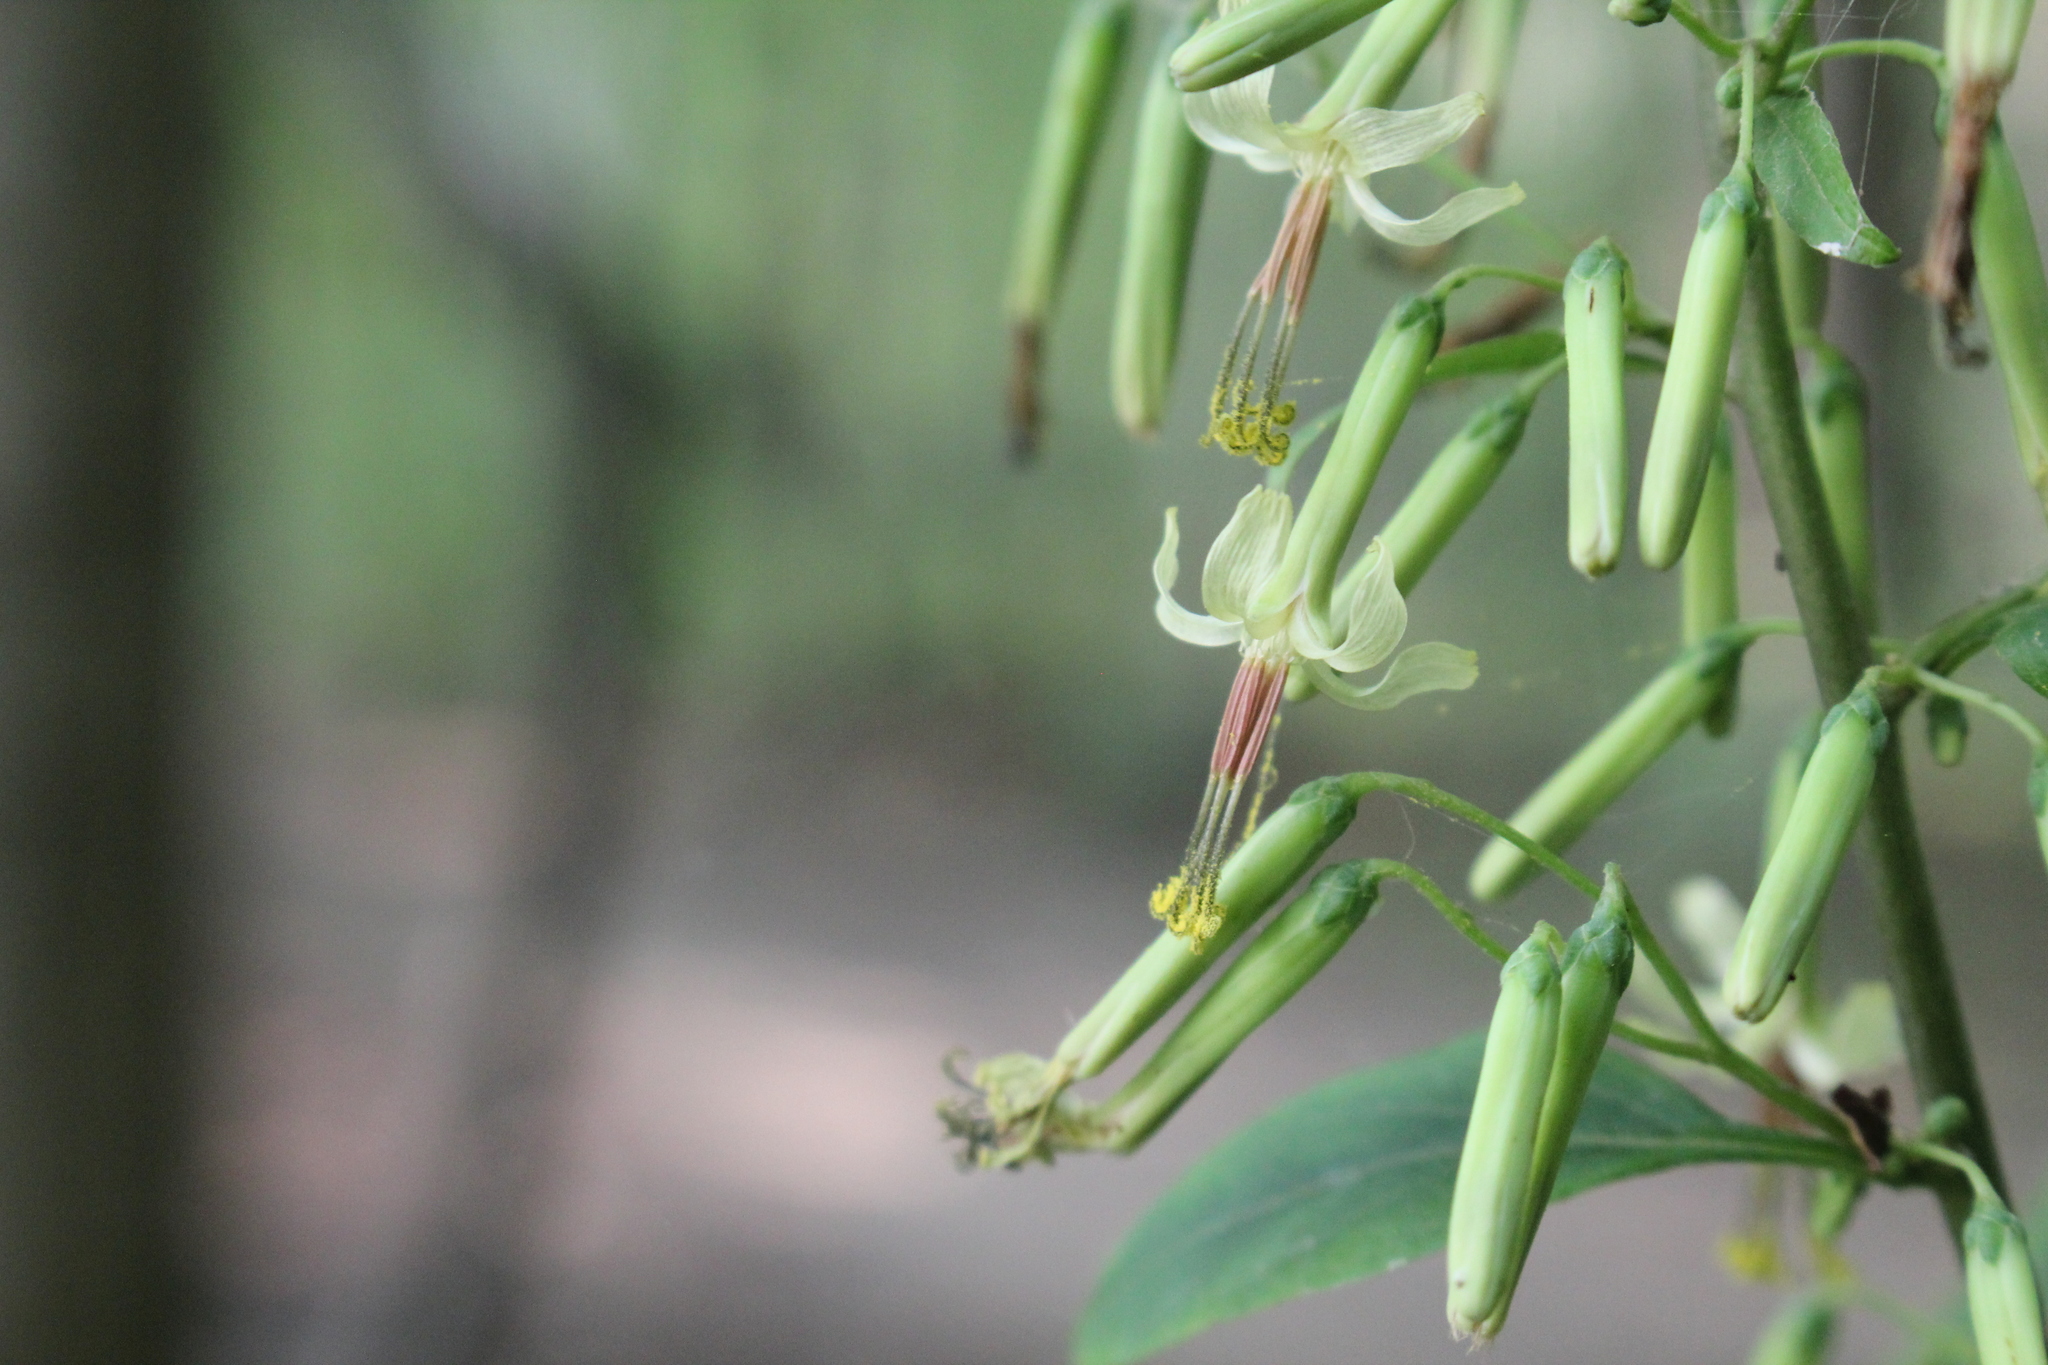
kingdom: Plantae
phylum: Tracheophyta
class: Magnoliopsida
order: Asterales
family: Asteraceae
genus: Nabalus
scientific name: Nabalus altissima
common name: Tall rattlesnakeroot
